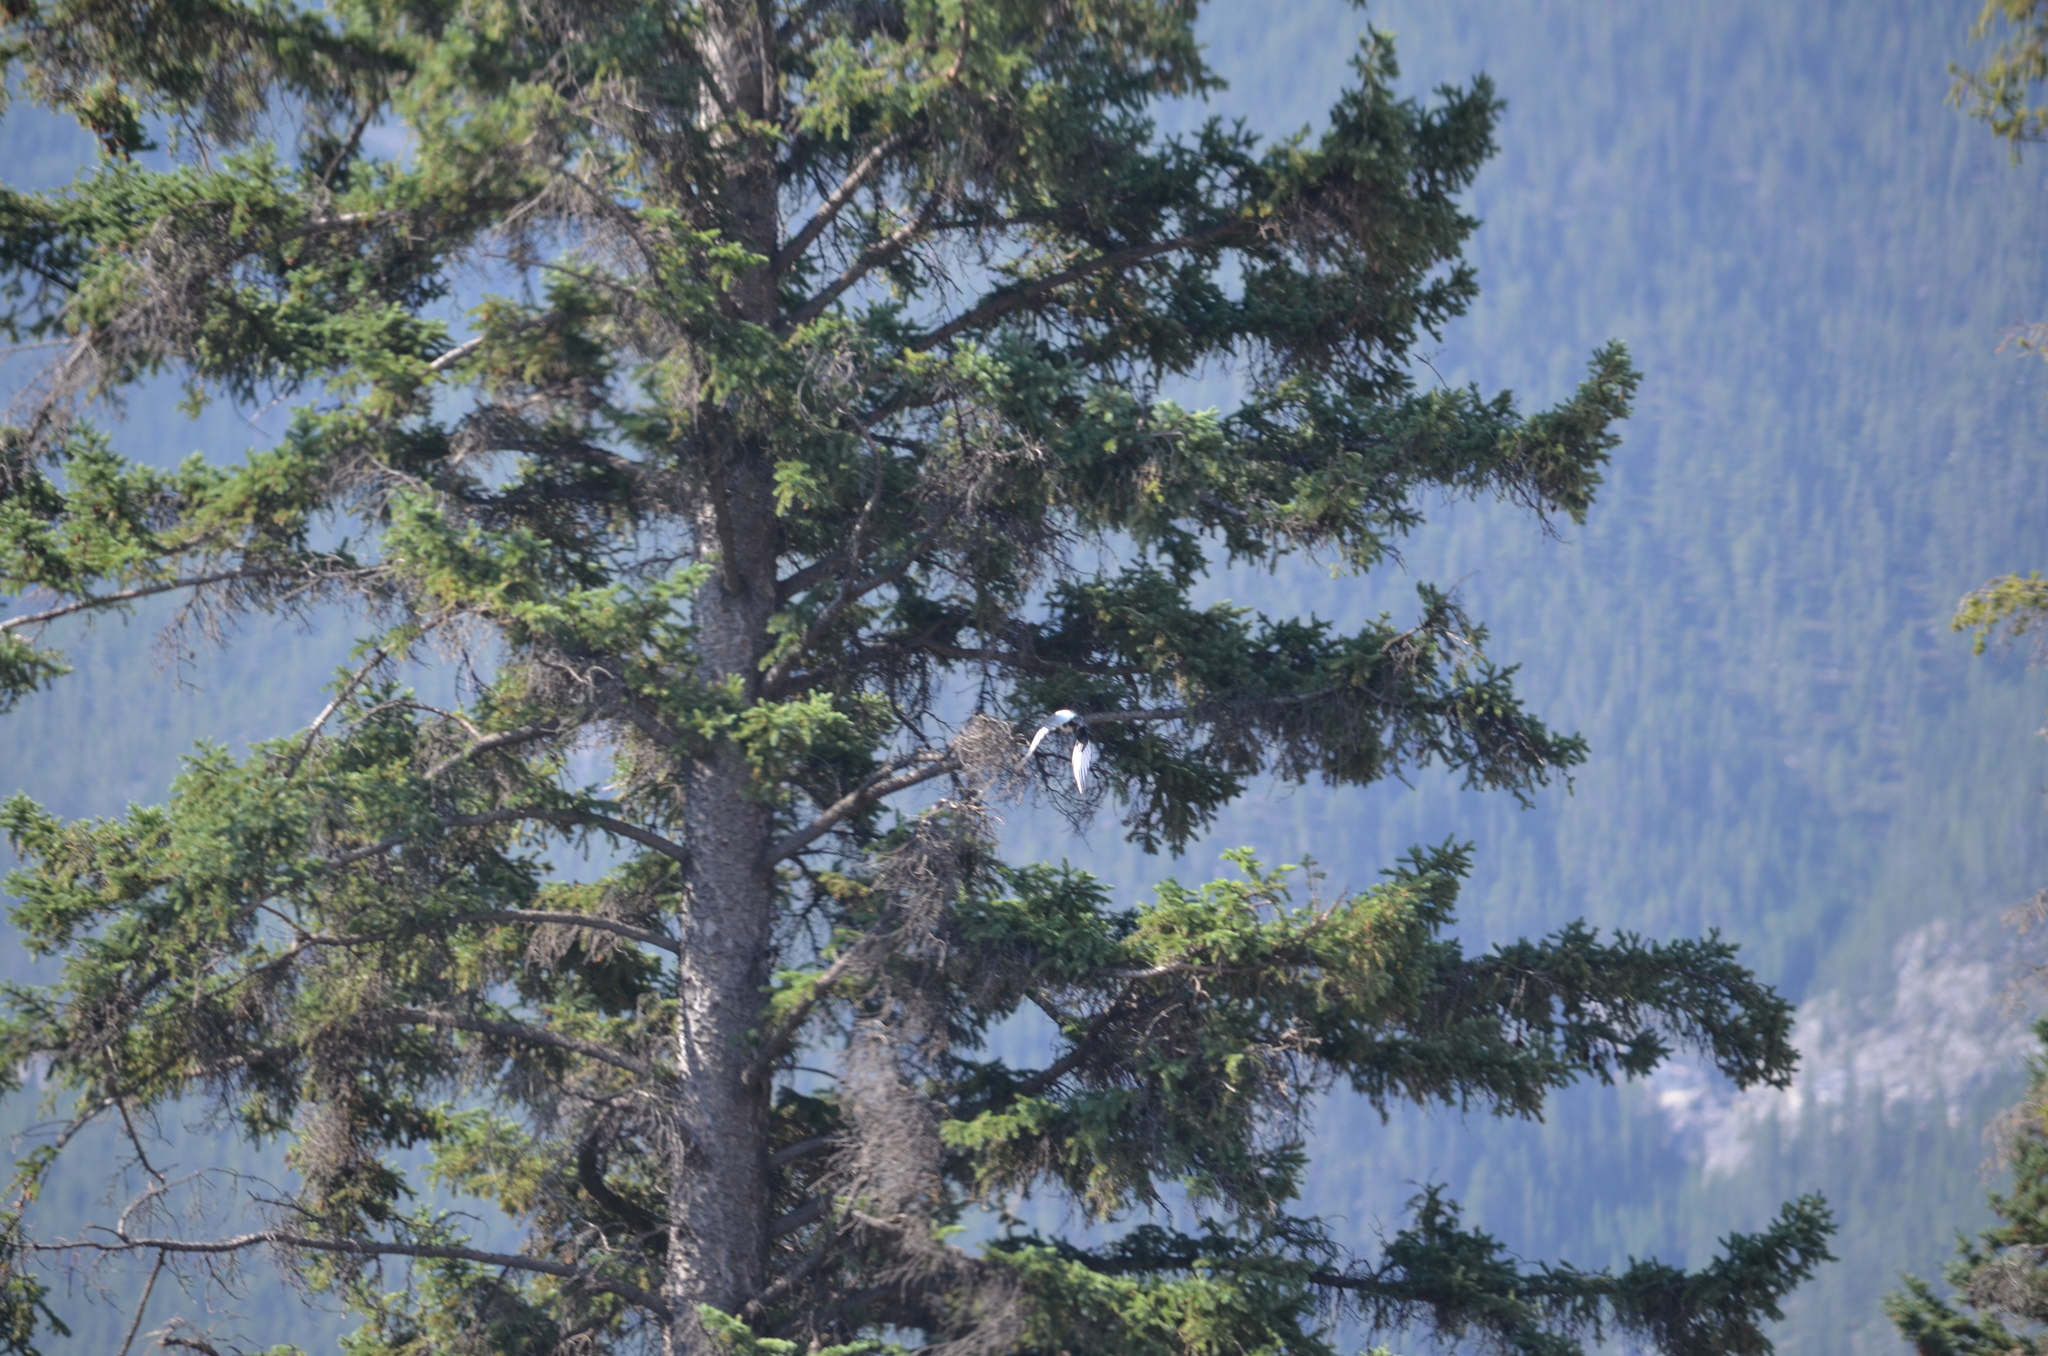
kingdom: Animalia
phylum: Chordata
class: Aves
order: Passeriformes
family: Corvidae
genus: Pica
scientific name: Pica hudsonia
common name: Black-billed magpie
